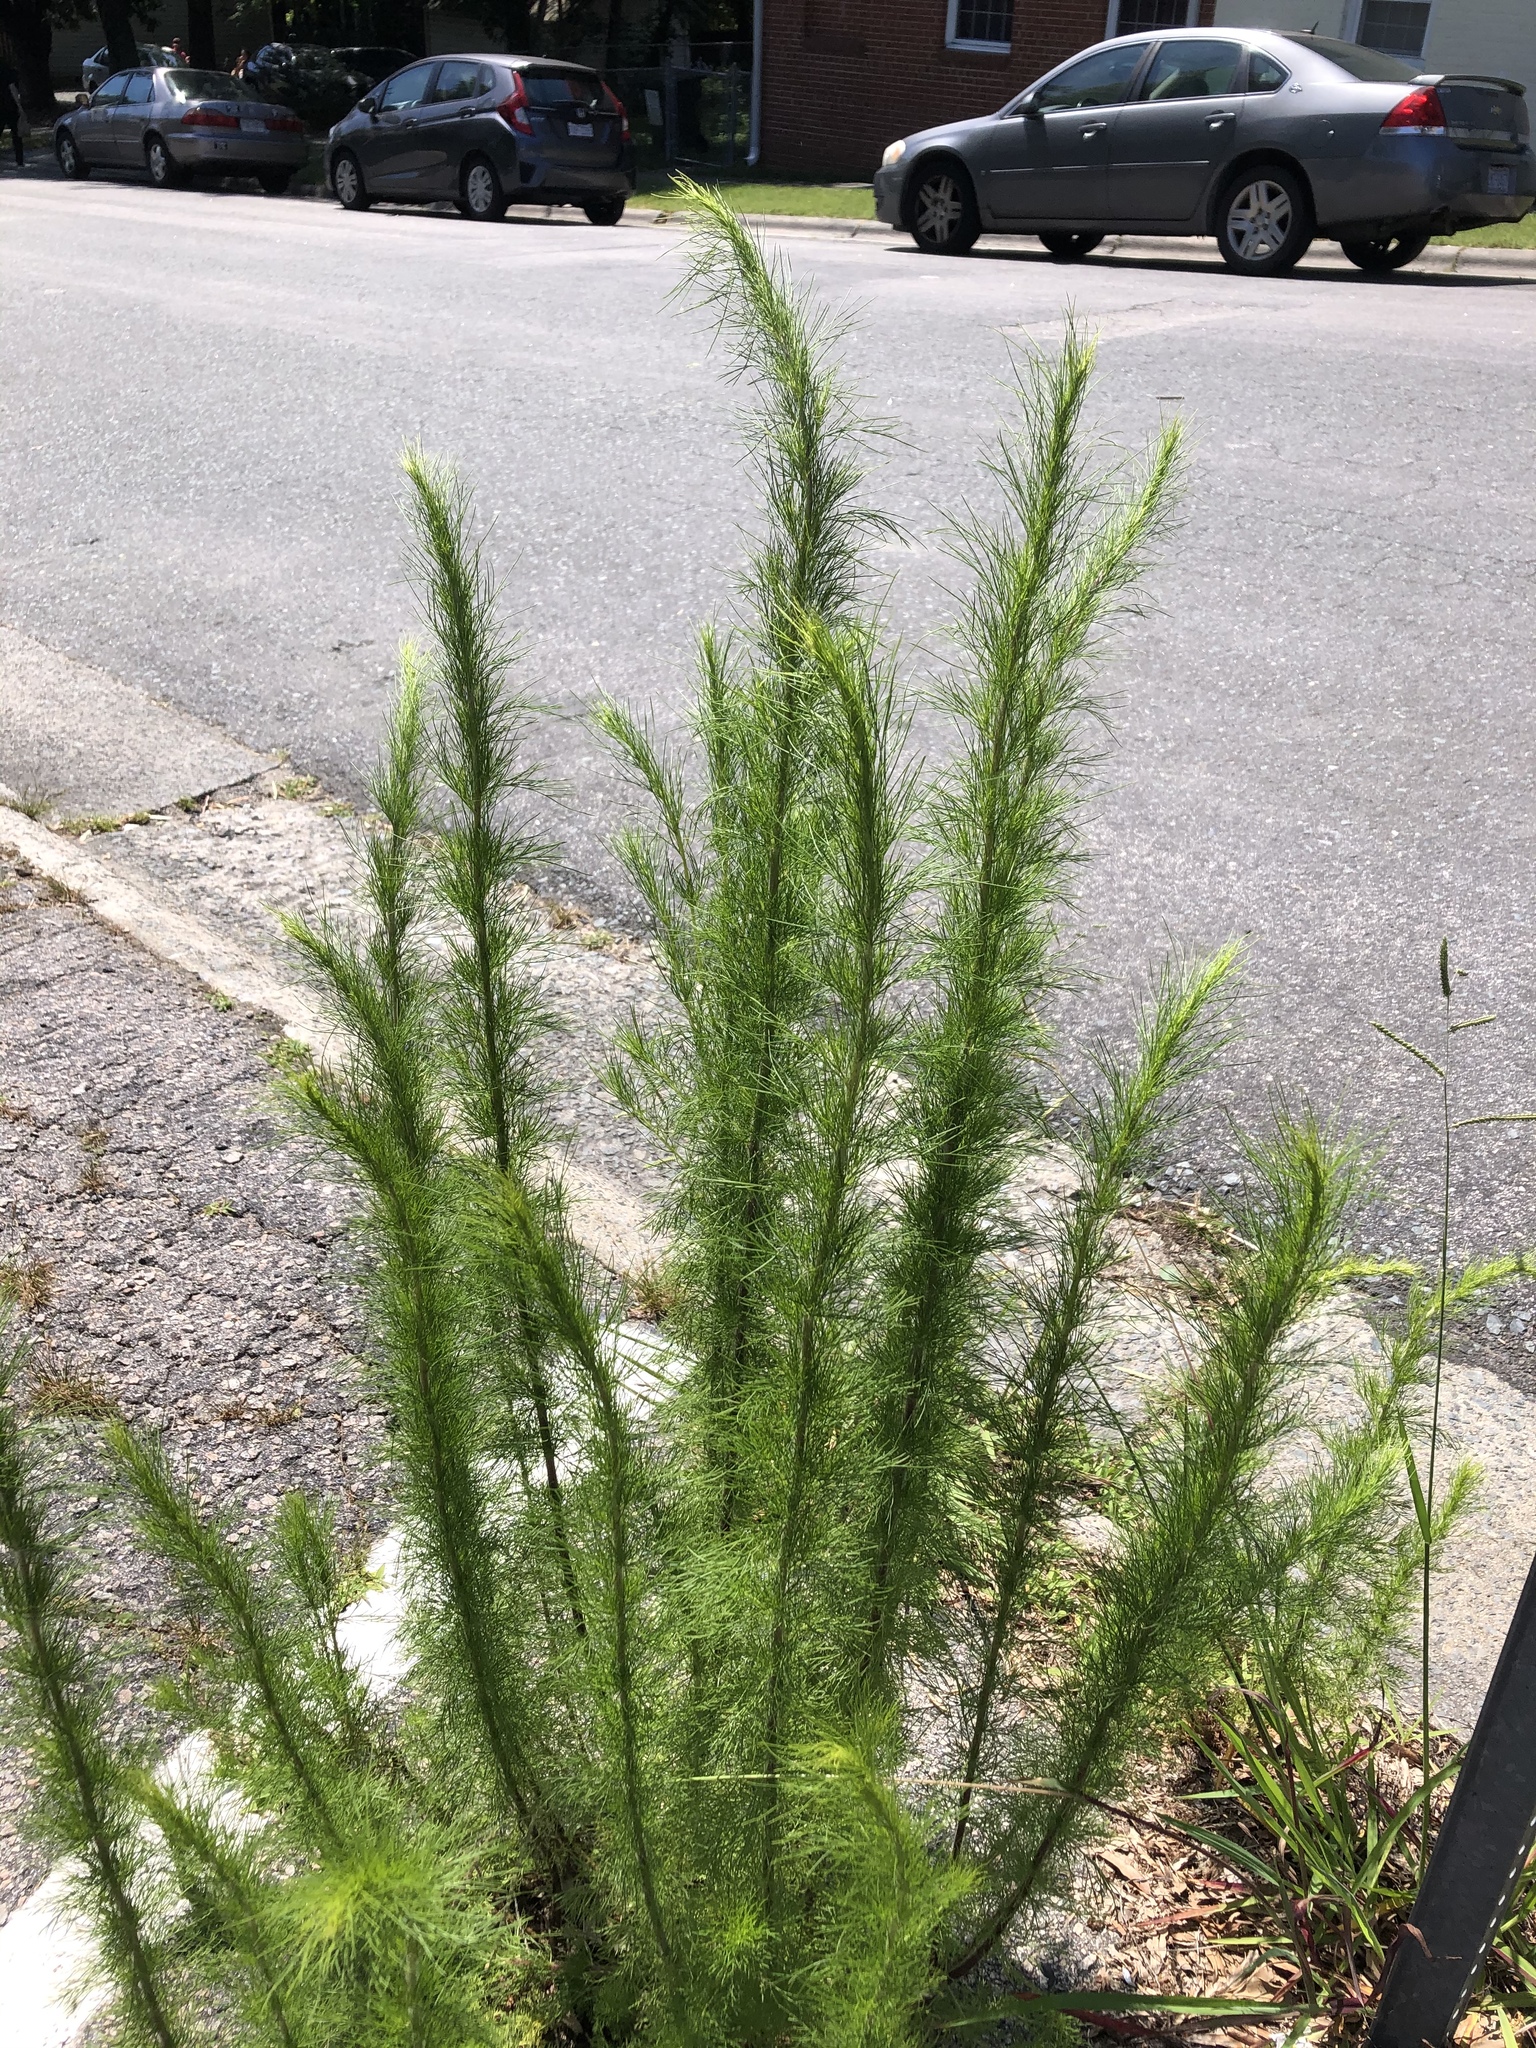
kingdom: Plantae
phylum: Tracheophyta
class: Magnoliopsida
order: Asterales
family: Asteraceae
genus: Eupatorium
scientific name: Eupatorium capillifolium
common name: Dog-fennel
